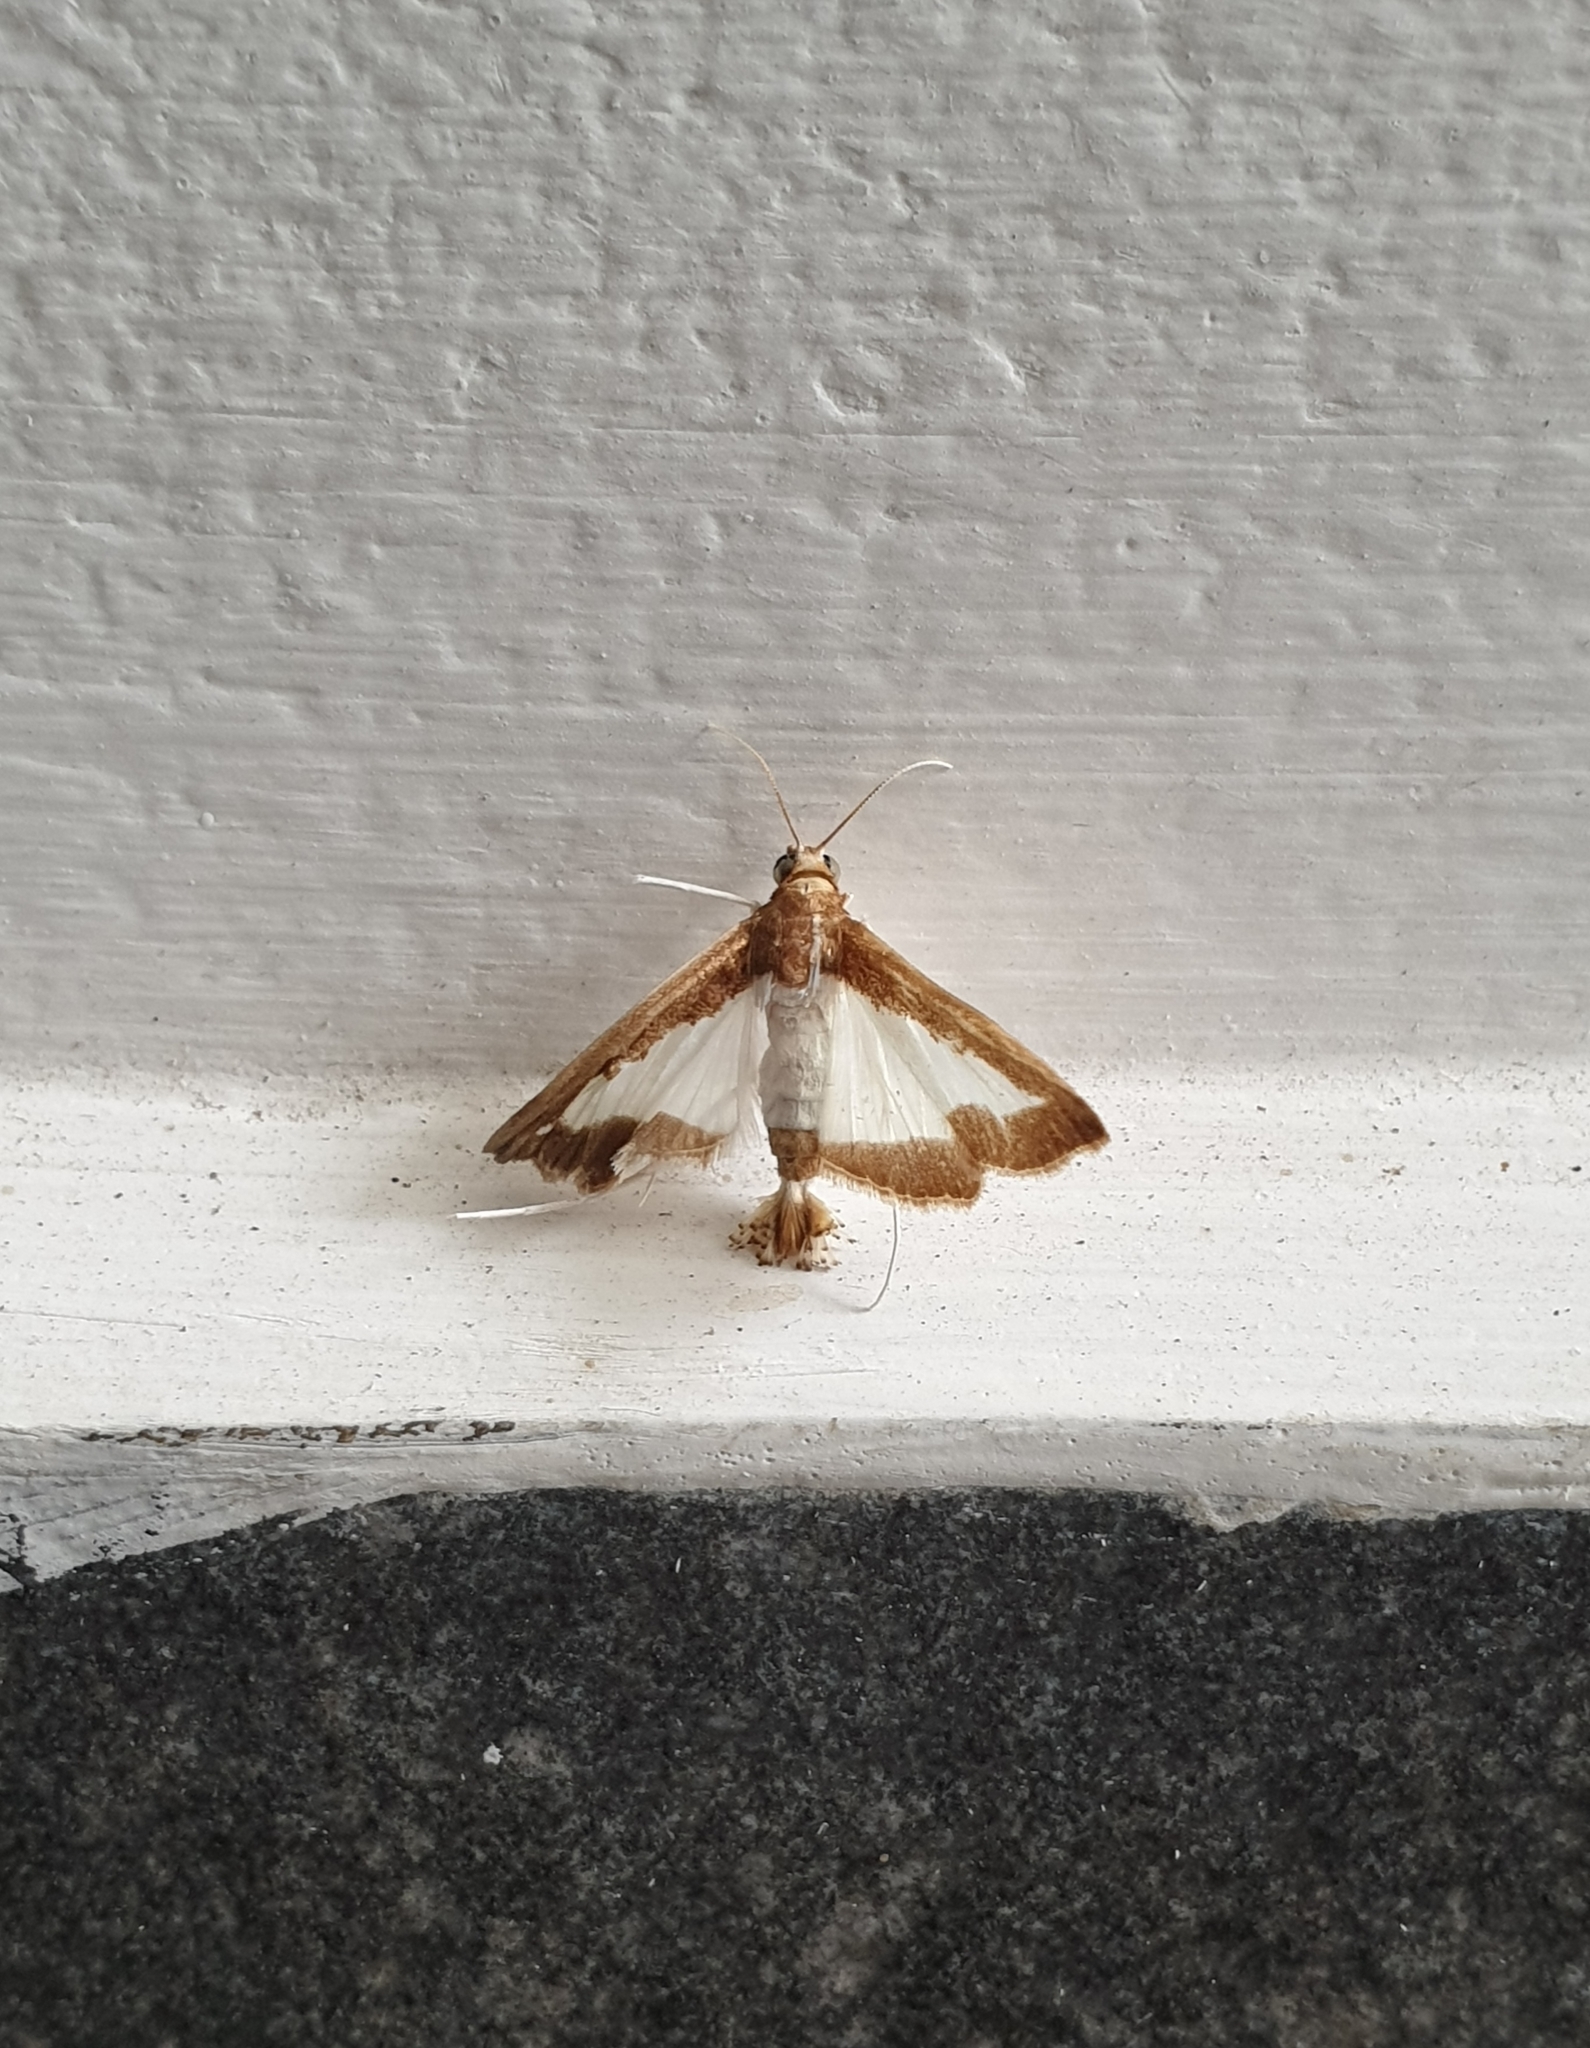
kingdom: Animalia
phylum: Arthropoda
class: Insecta
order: Lepidoptera
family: Crambidae
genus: Diaphania
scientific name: Diaphania indica
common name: Cucumber moth
